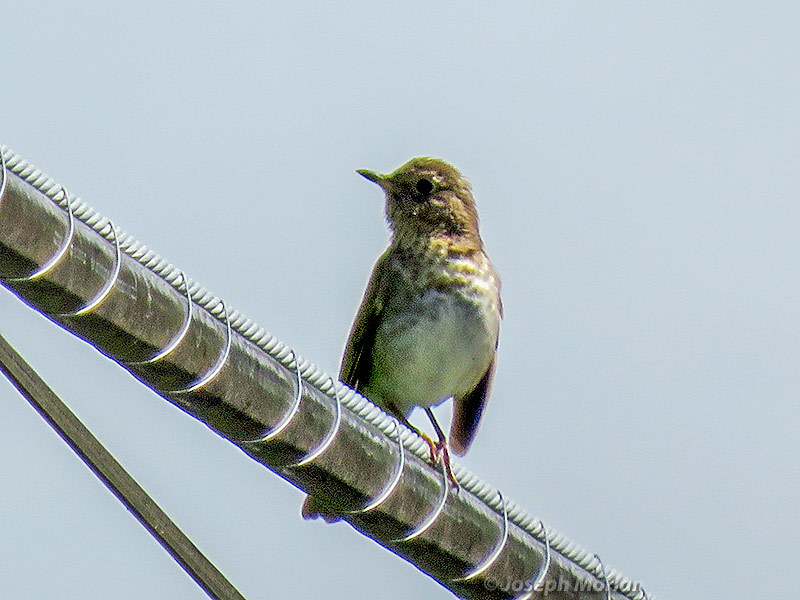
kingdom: Animalia
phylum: Chordata
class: Aves
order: Passeriformes
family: Turdidae
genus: Catharus
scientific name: Catharus ustulatus
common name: Swainson's thrush
